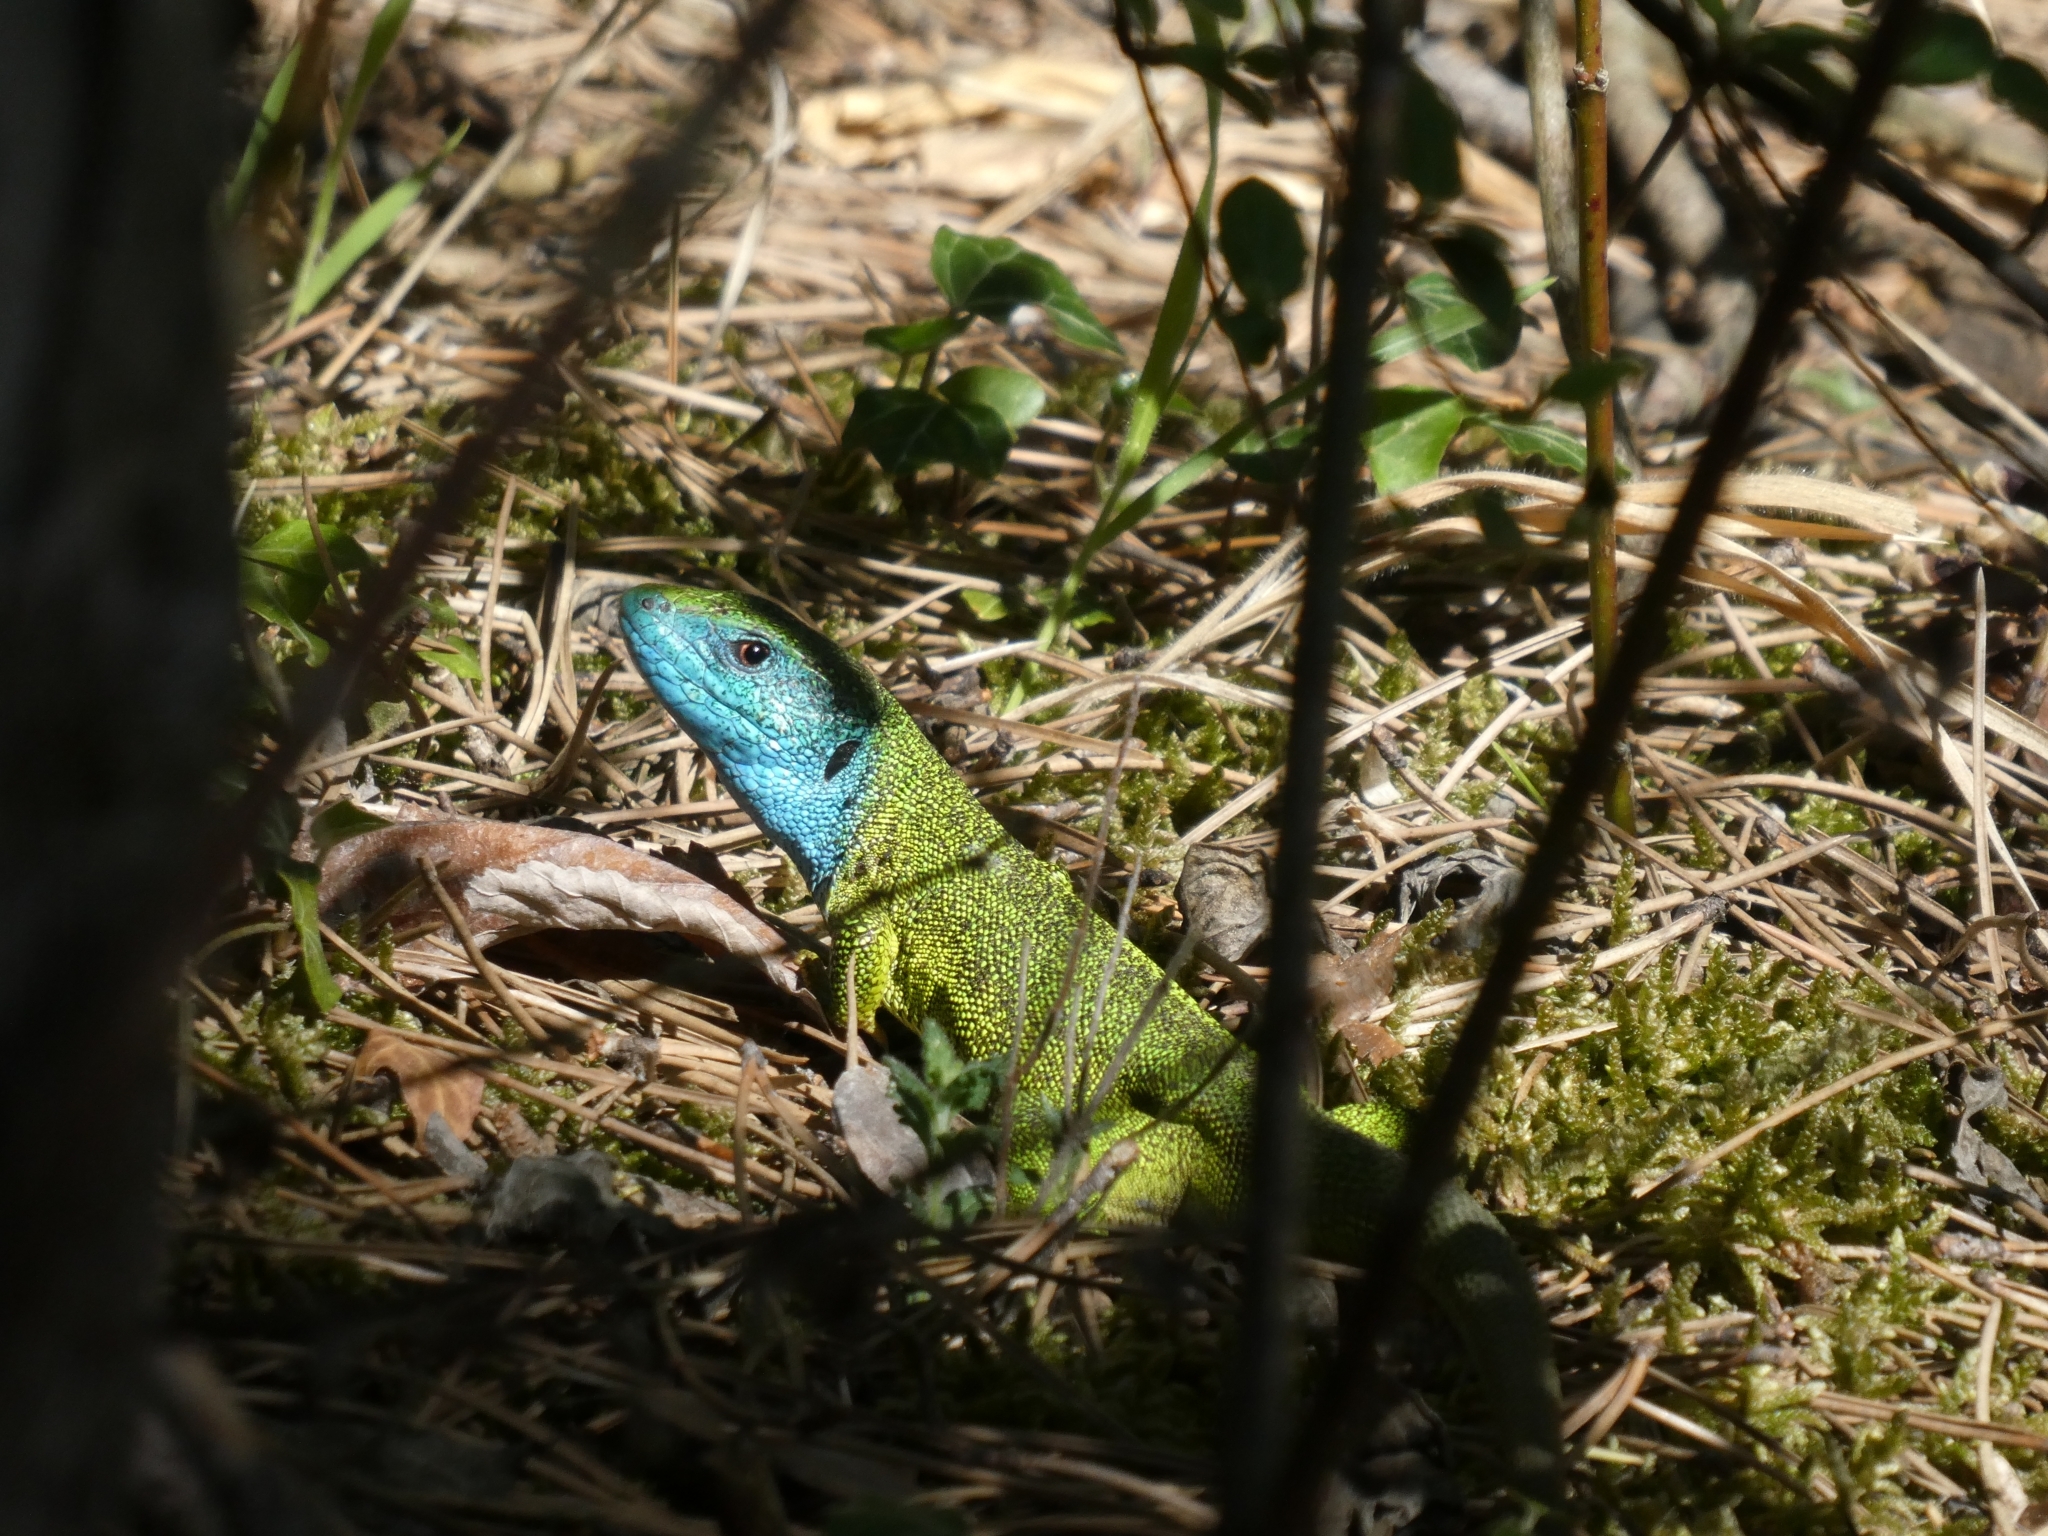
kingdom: Animalia
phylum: Chordata
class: Squamata
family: Lacertidae
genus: Lacerta
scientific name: Lacerta viridis
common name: European green lizard
